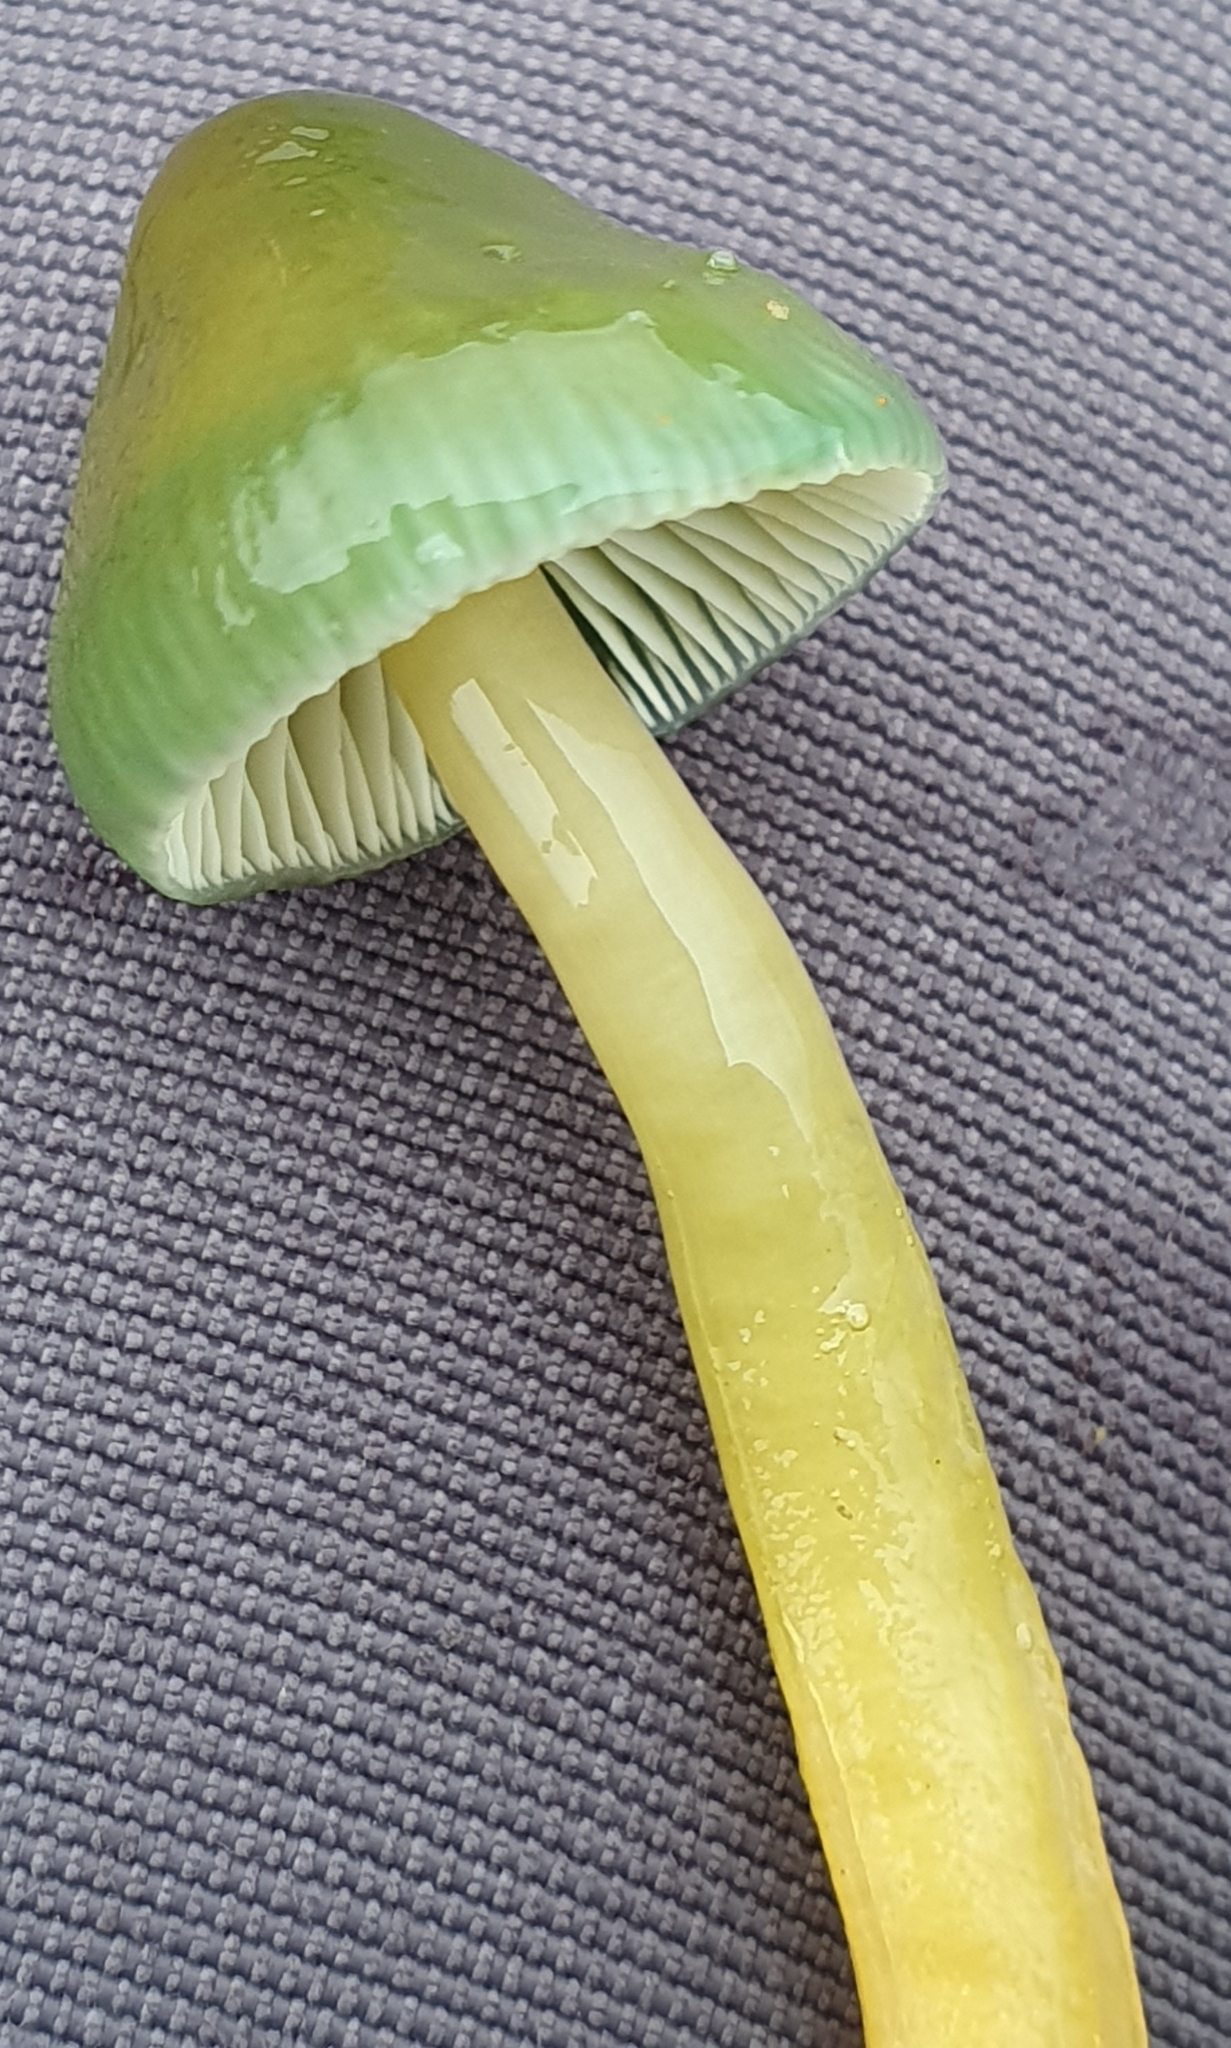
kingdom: Fungi
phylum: Basidiomycota
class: Agaricomycetes
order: Agaricales
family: Hygrophoraceae
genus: Gliophorus
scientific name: Gliophorus psittacinus
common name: Parrot wax-cap
